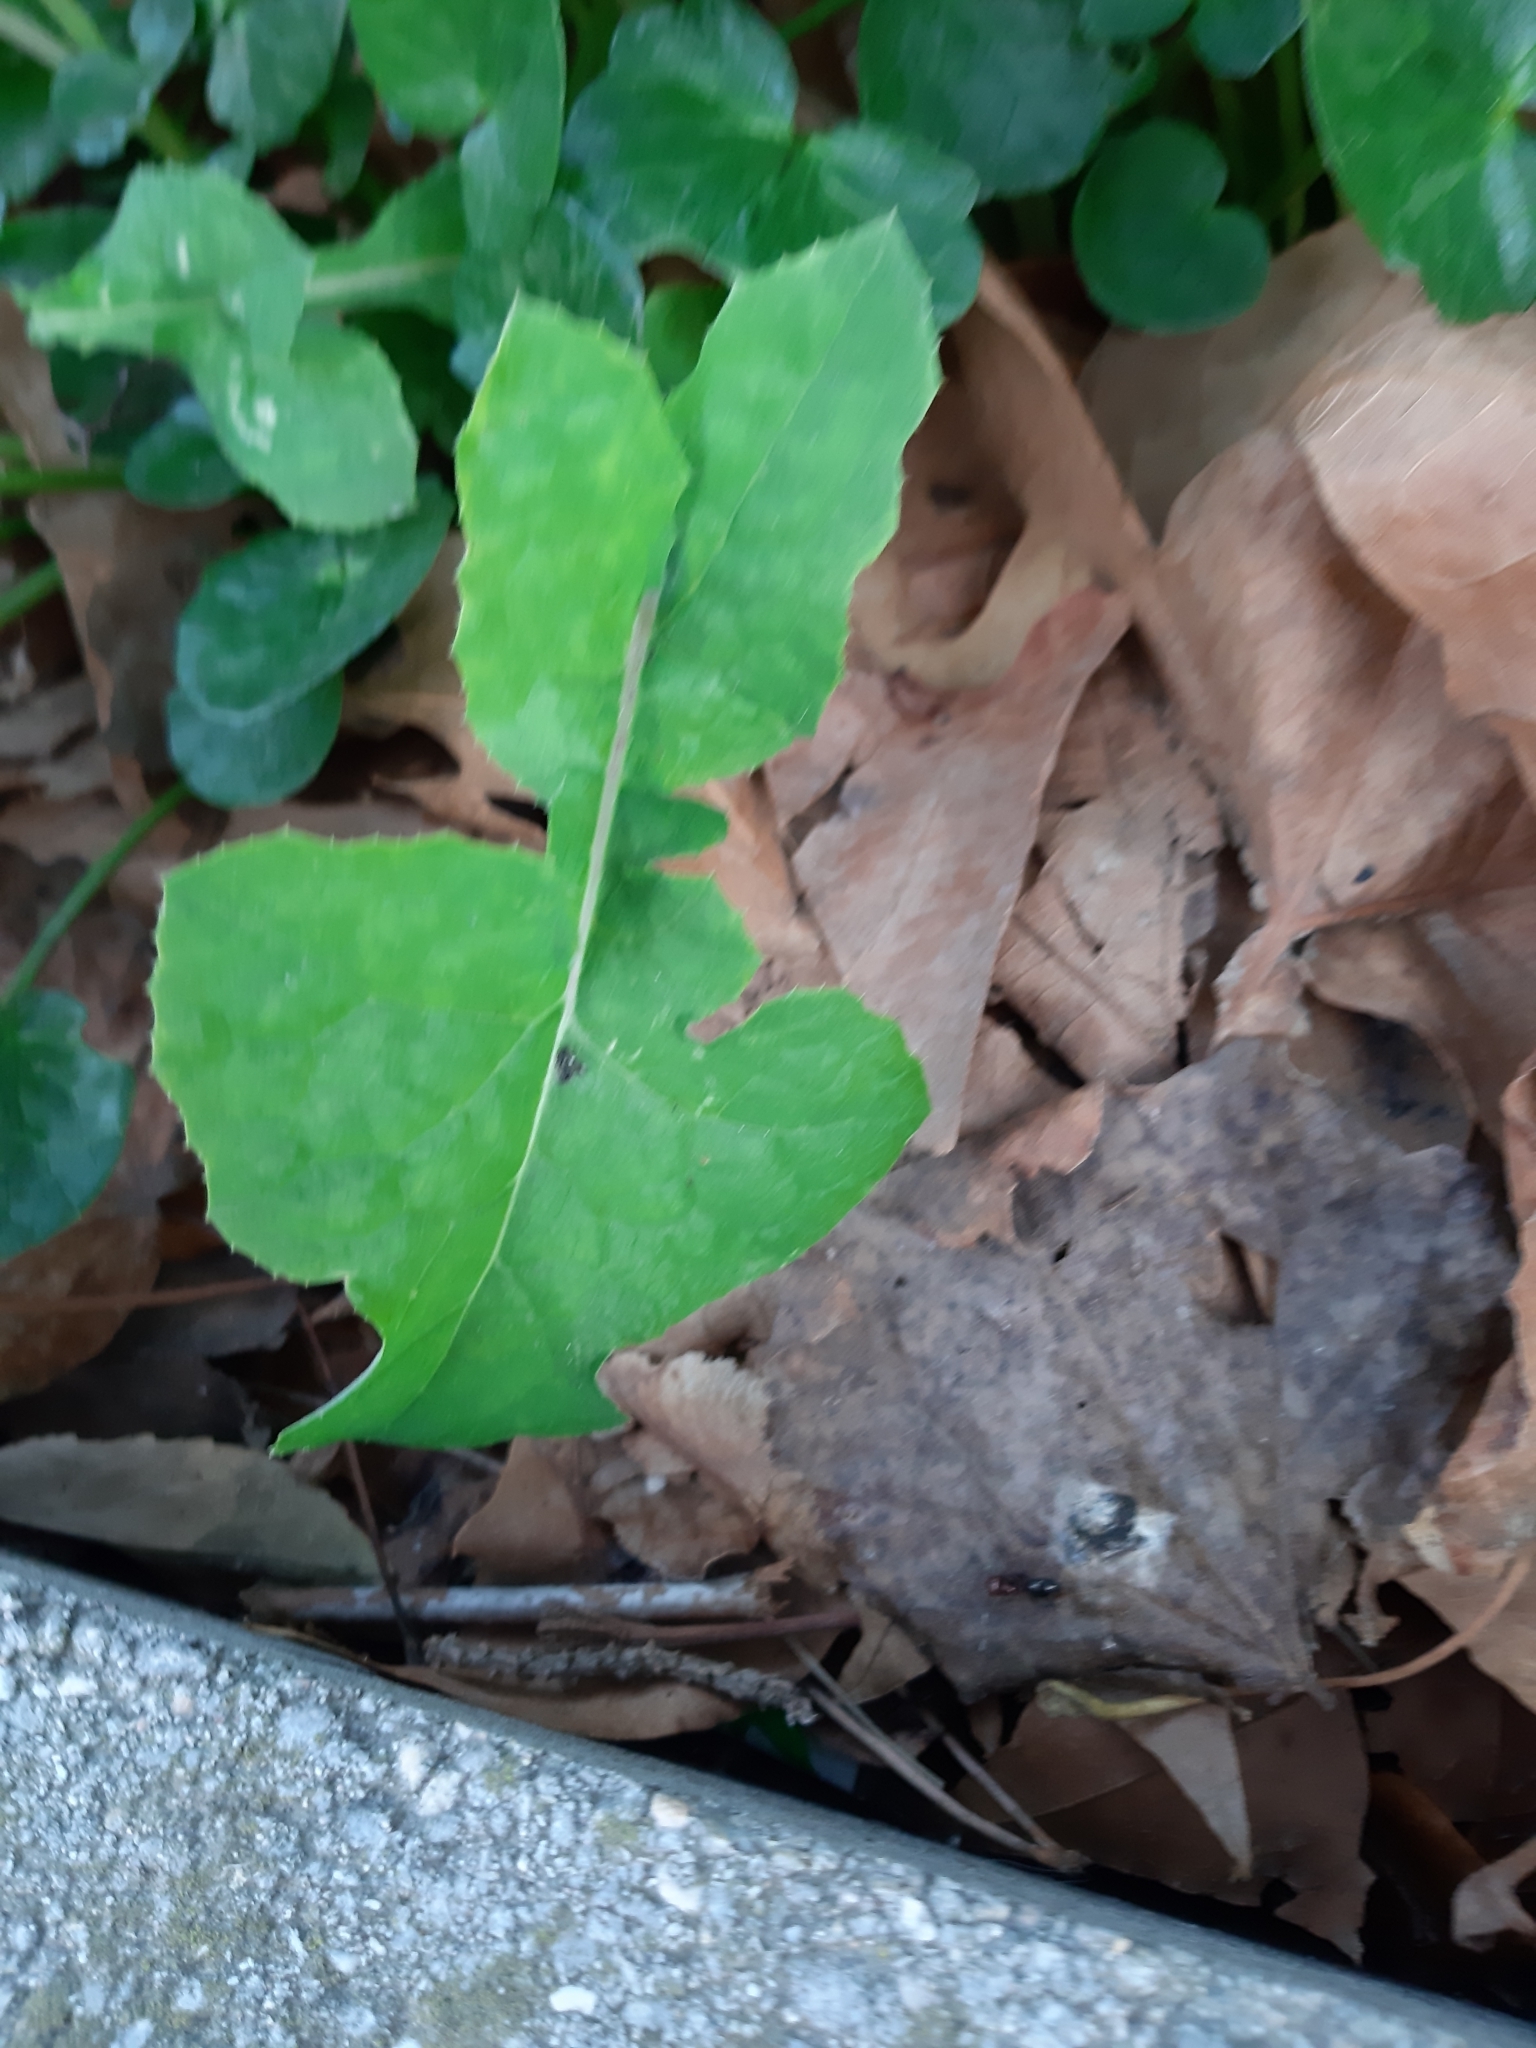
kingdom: Plantae
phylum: Tracheophyta
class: Magnoliopsida
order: Asterales
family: Asteraceae
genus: Sonchus
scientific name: Sonchus oleraceus
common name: Common sowthistle
